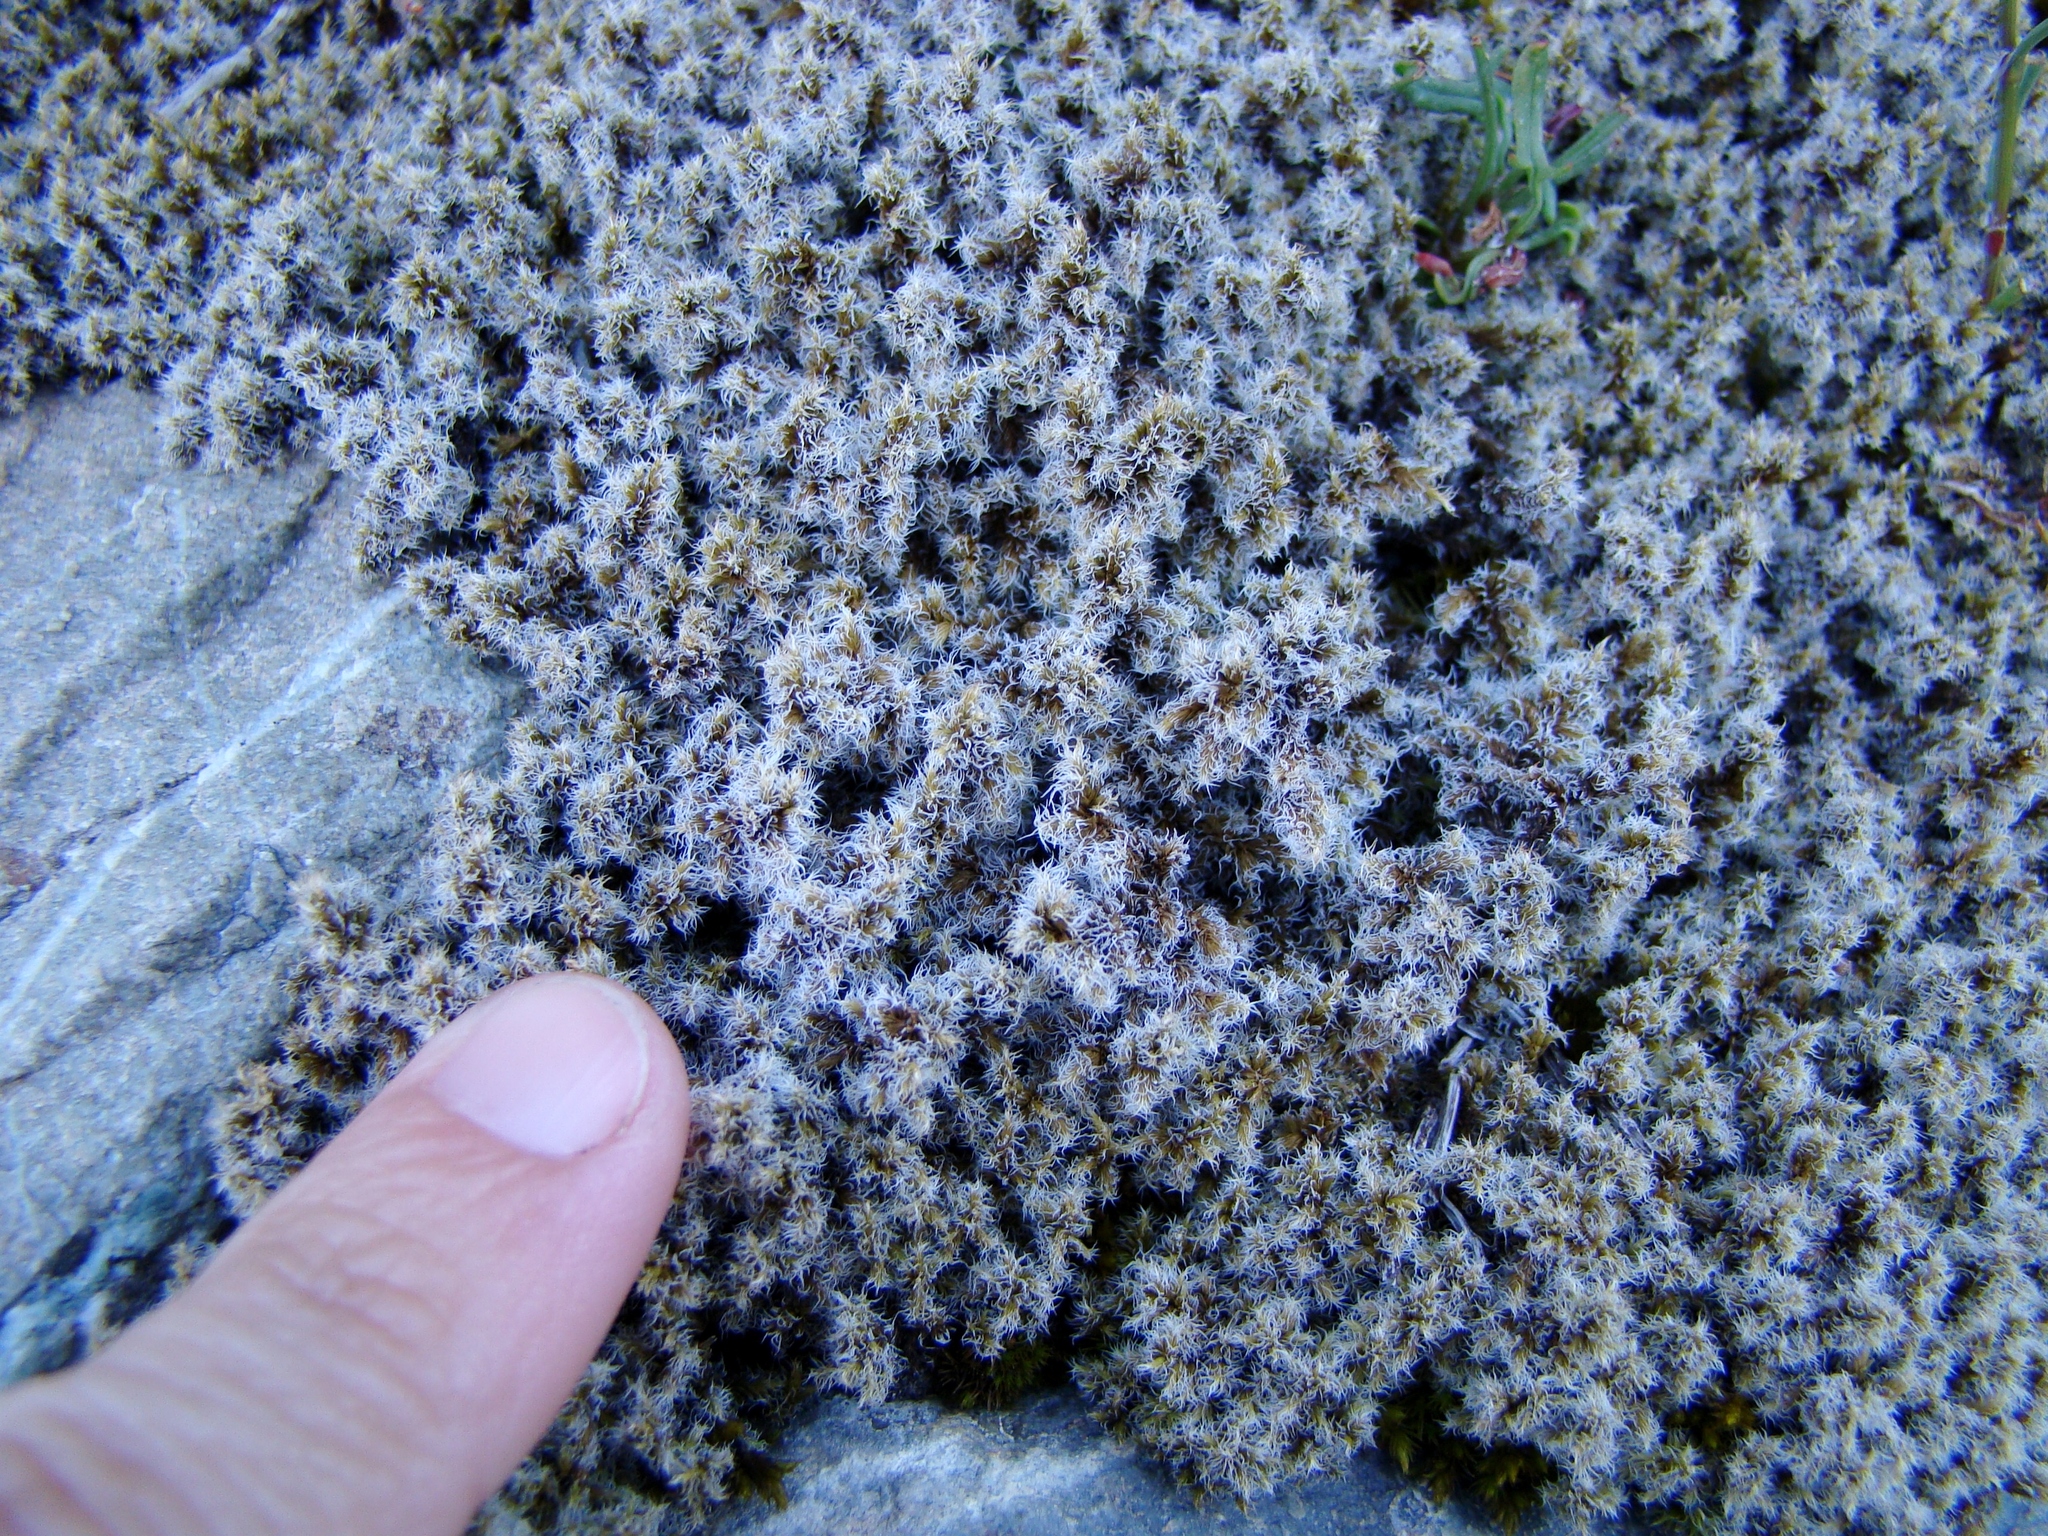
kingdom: Plantae
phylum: Bryophyta
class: Bryopsida
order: Grimmiales
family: Grimmiaceae
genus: Racomitrium
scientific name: Racomitrium lanuginosum
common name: Hoary rock moss
